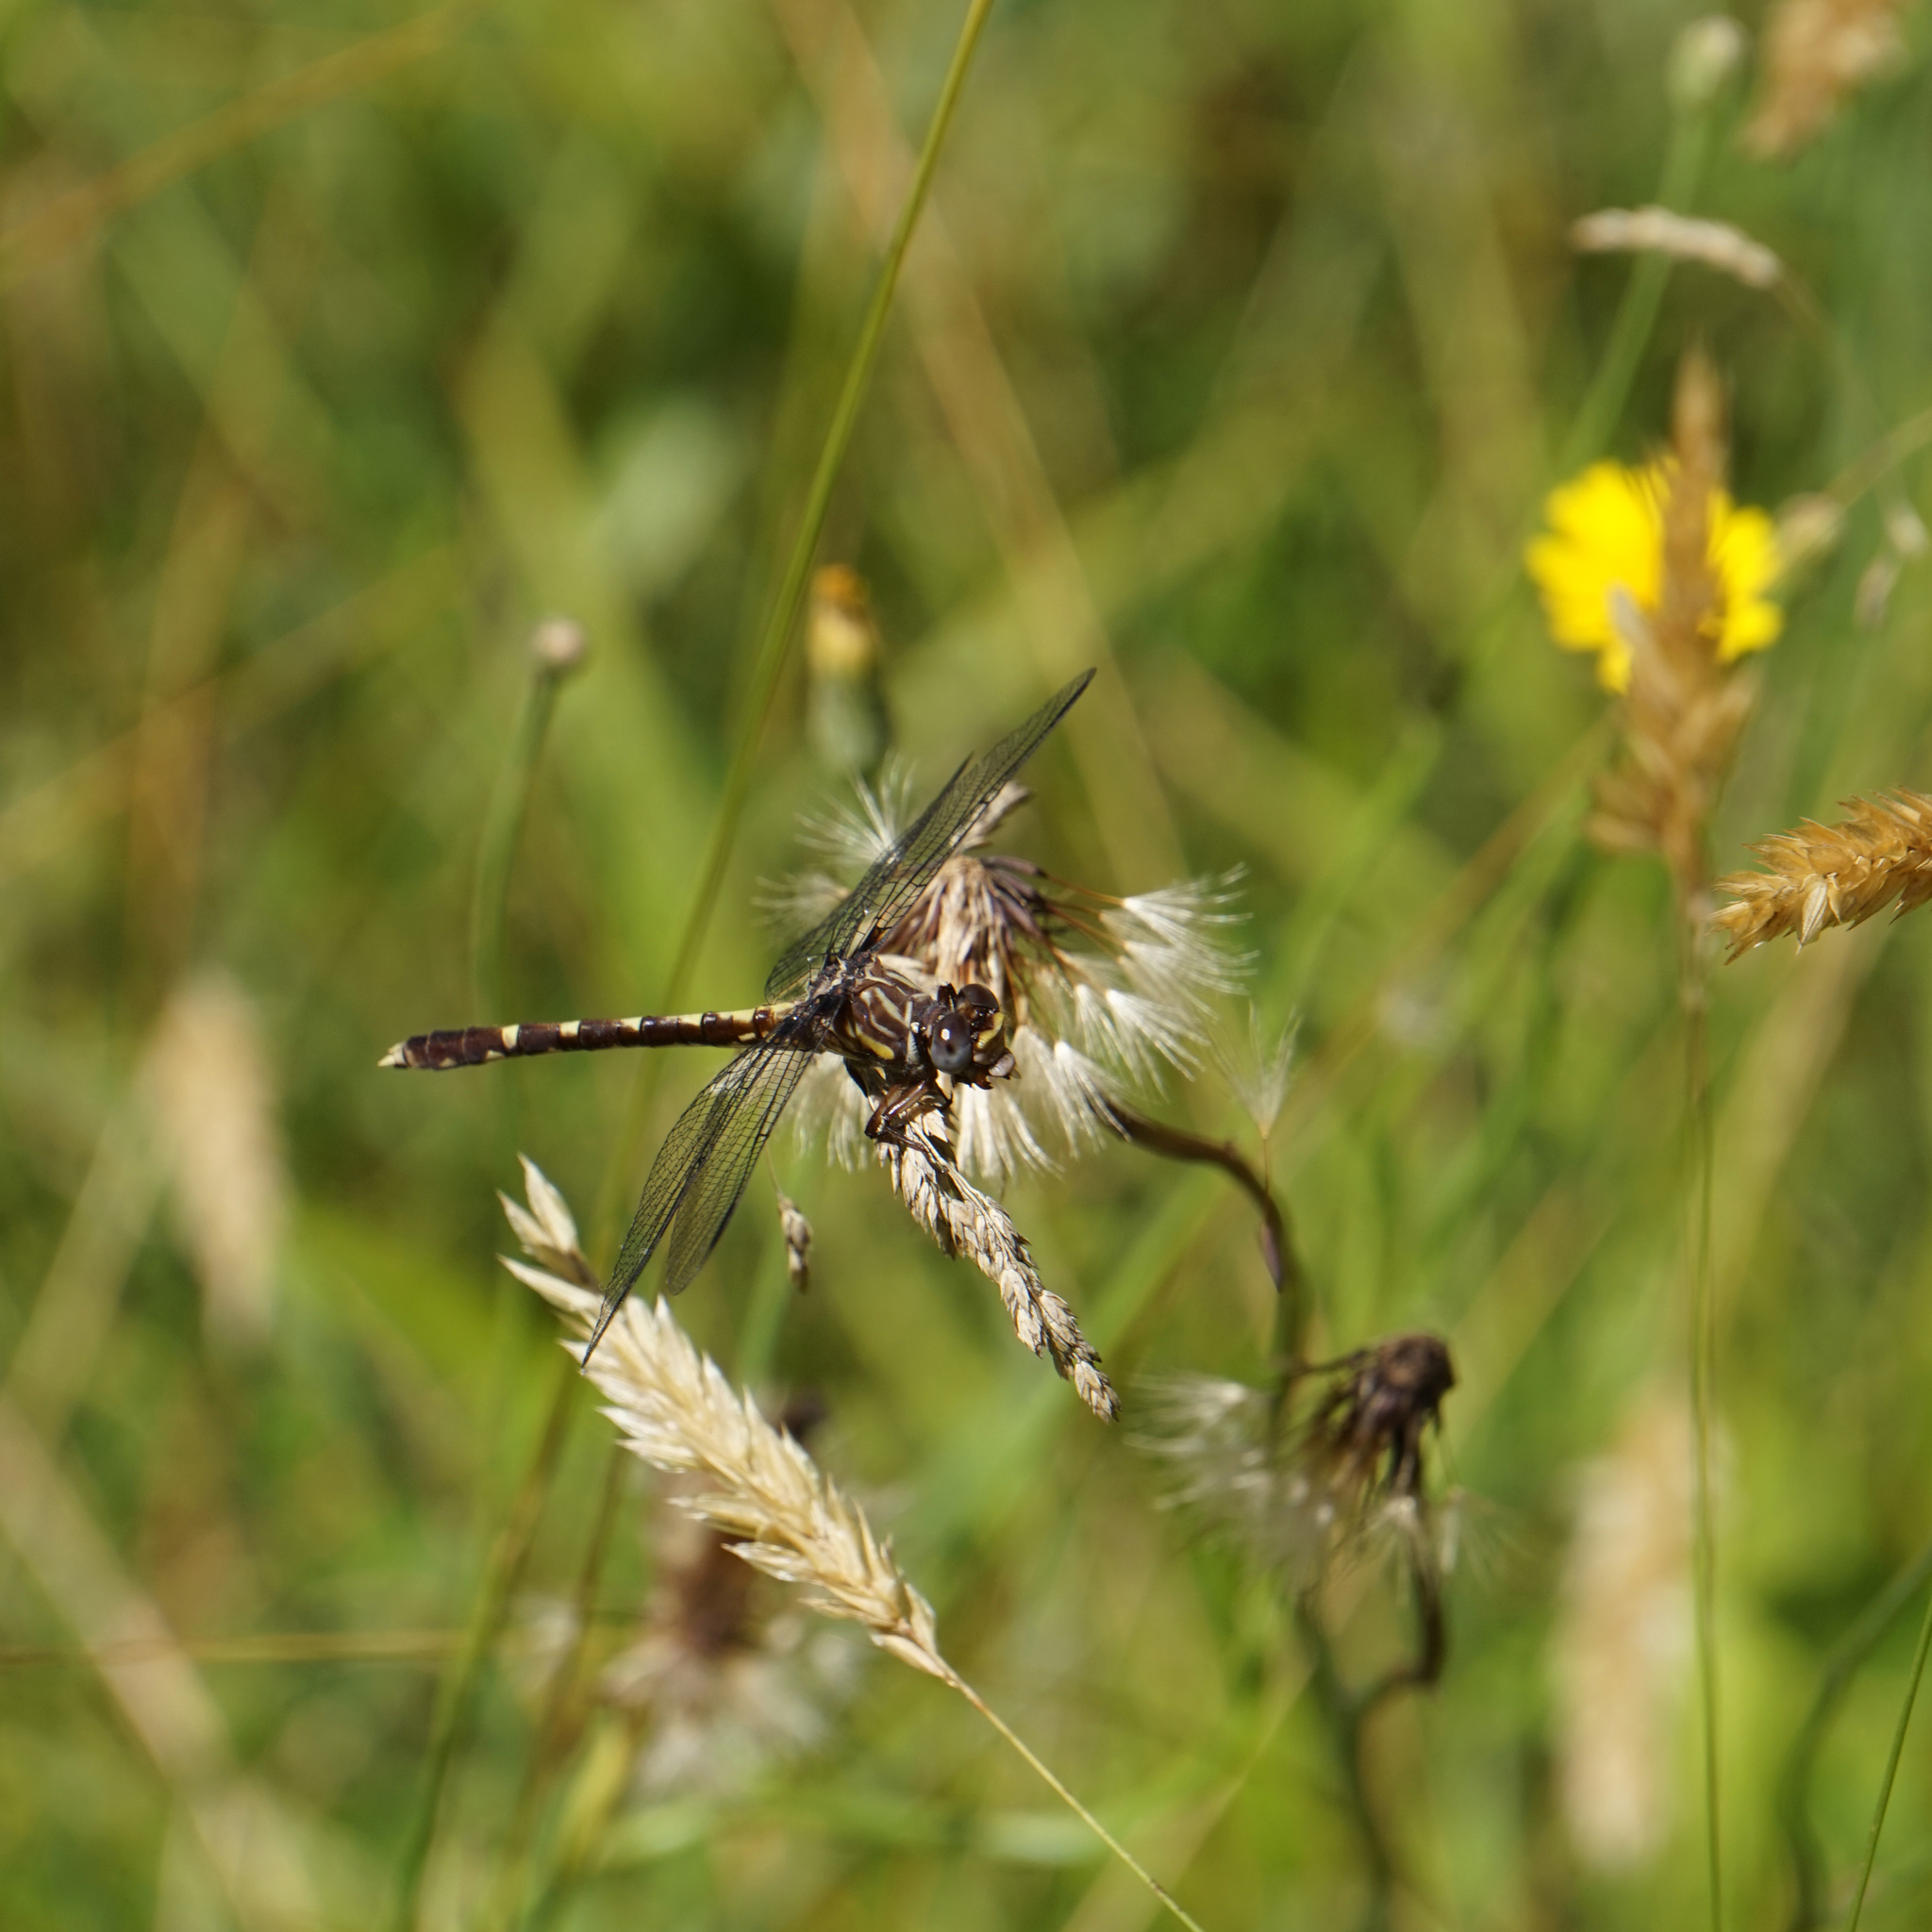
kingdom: Animalia
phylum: Arthropoda
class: Insecta
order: Odonata
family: Gomphidae
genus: Progomphus
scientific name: Progomphus obscurus
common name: Common sanddragon
